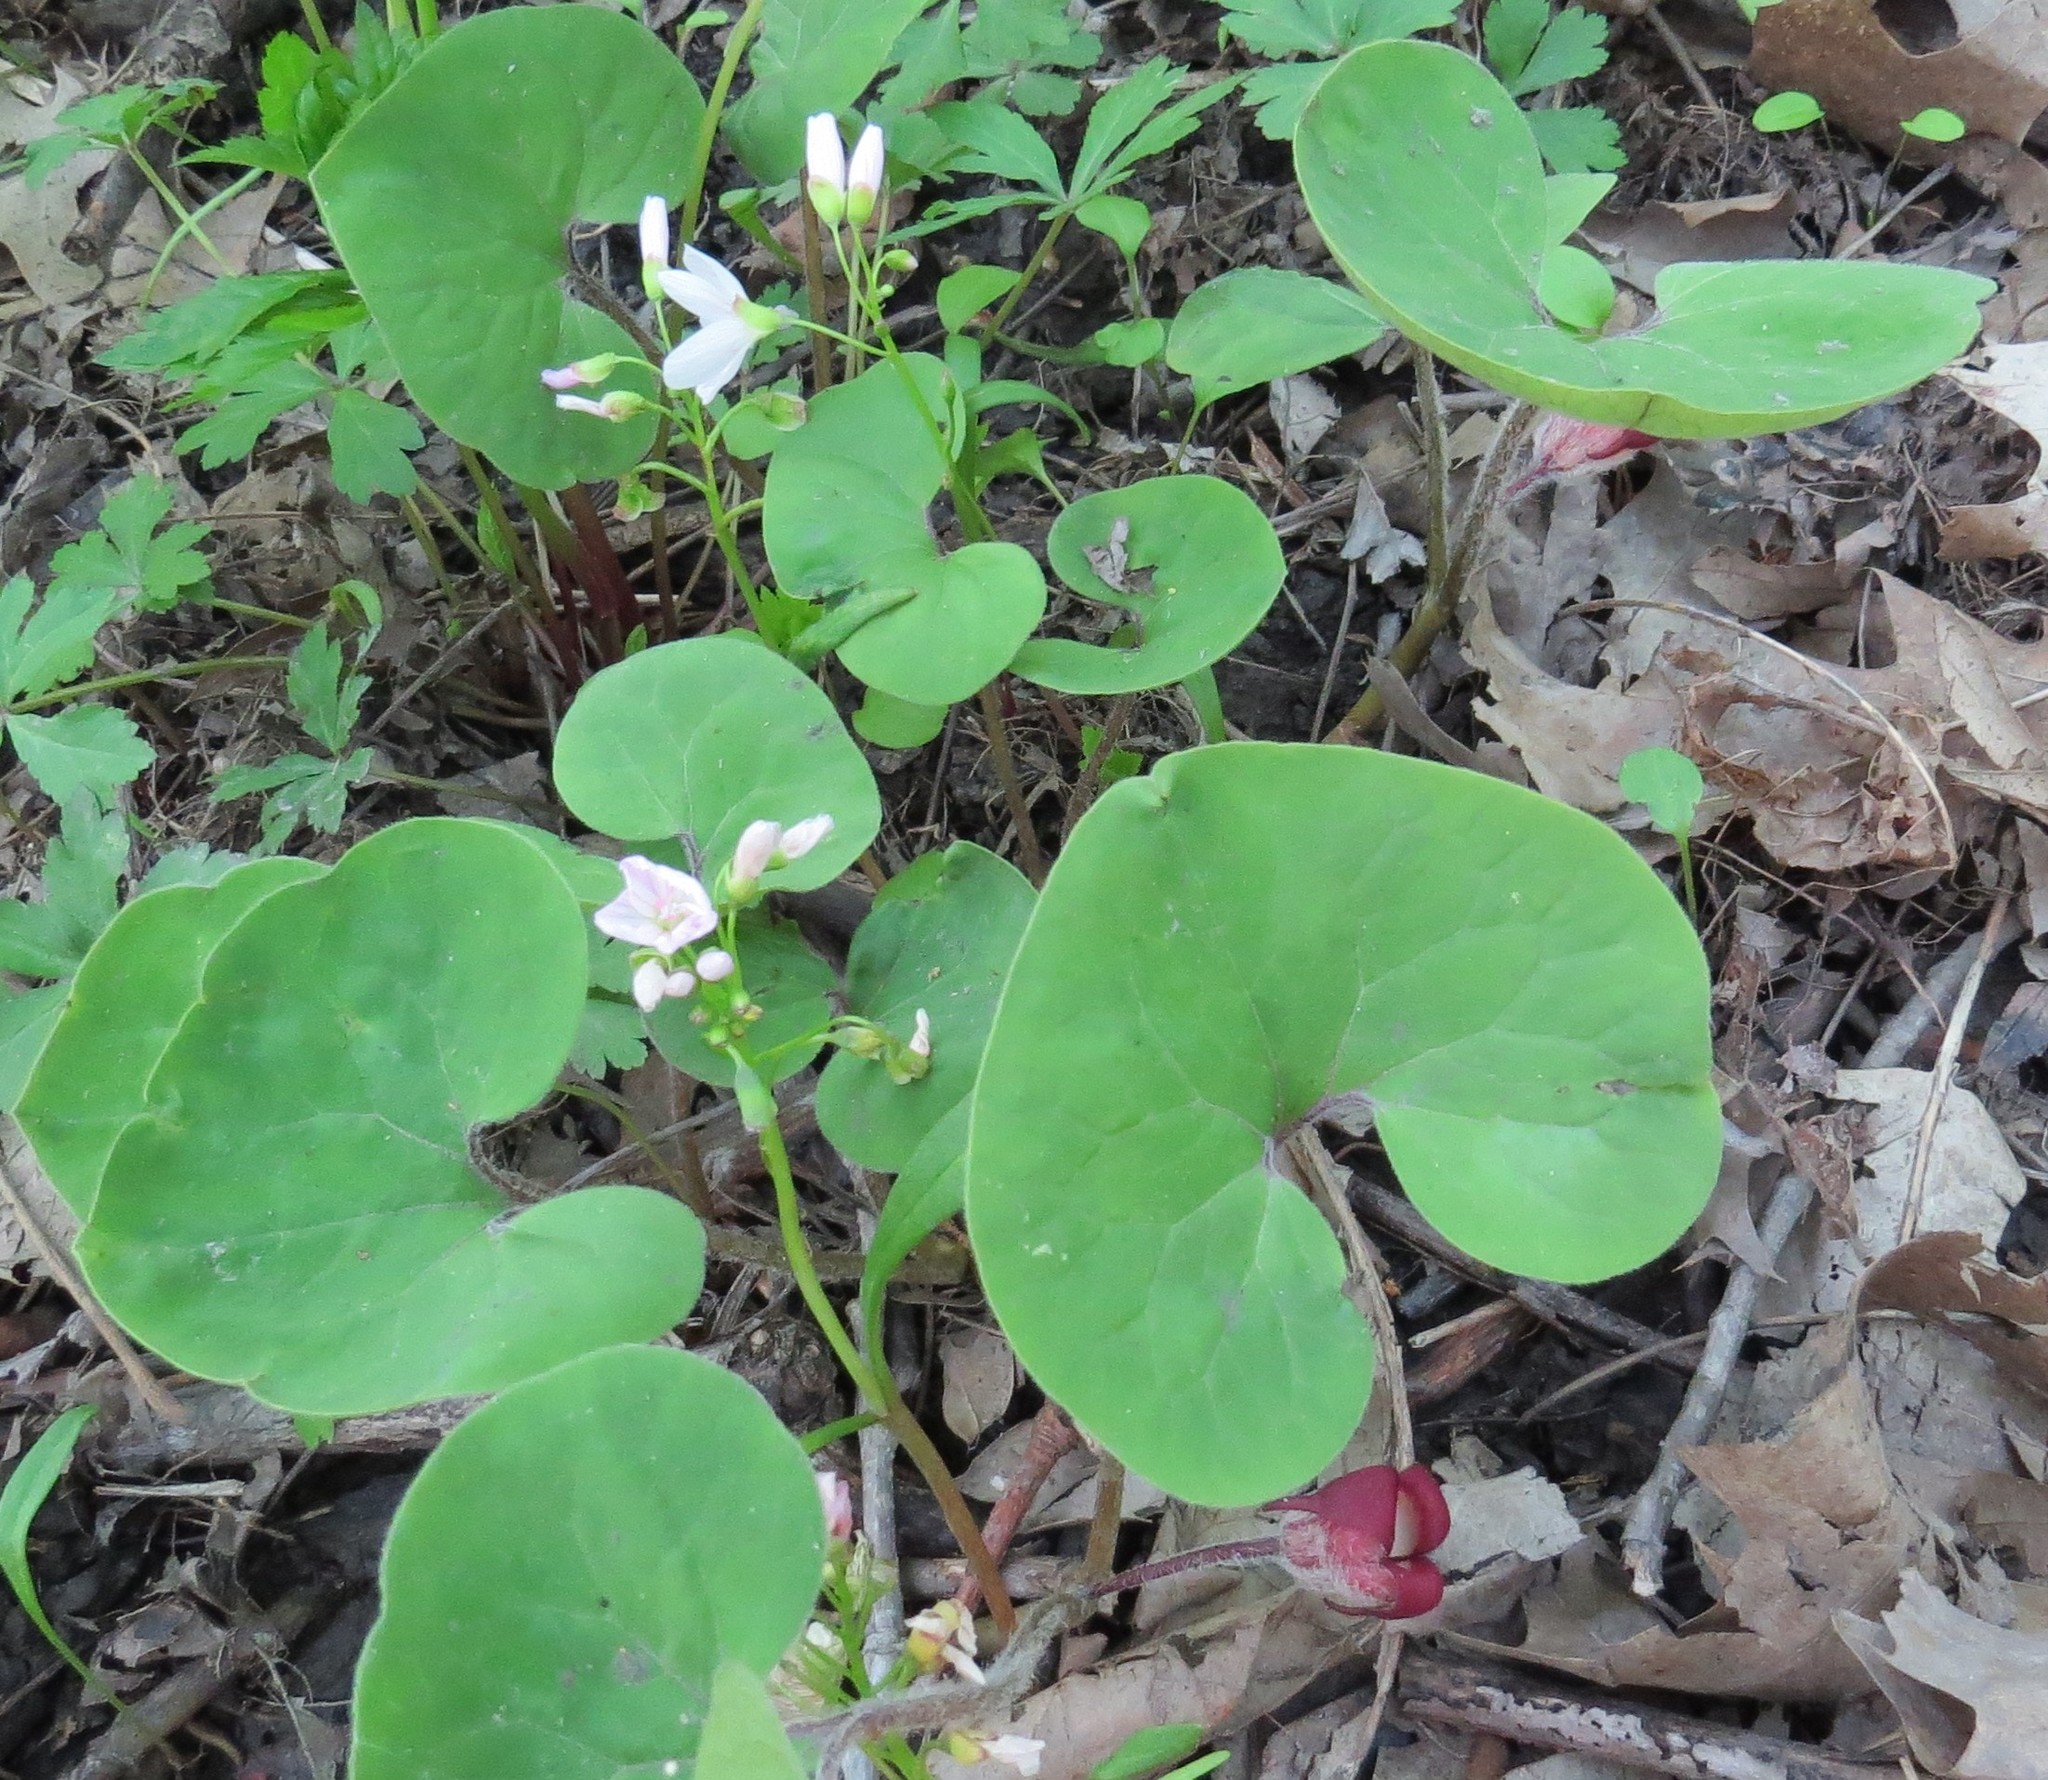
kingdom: Plantae
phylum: Tracheophyta
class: Magnoliopsida
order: Piperales
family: Aristolochiaceae
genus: Asarum
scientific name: Asarum canadense
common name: Wild ginger
